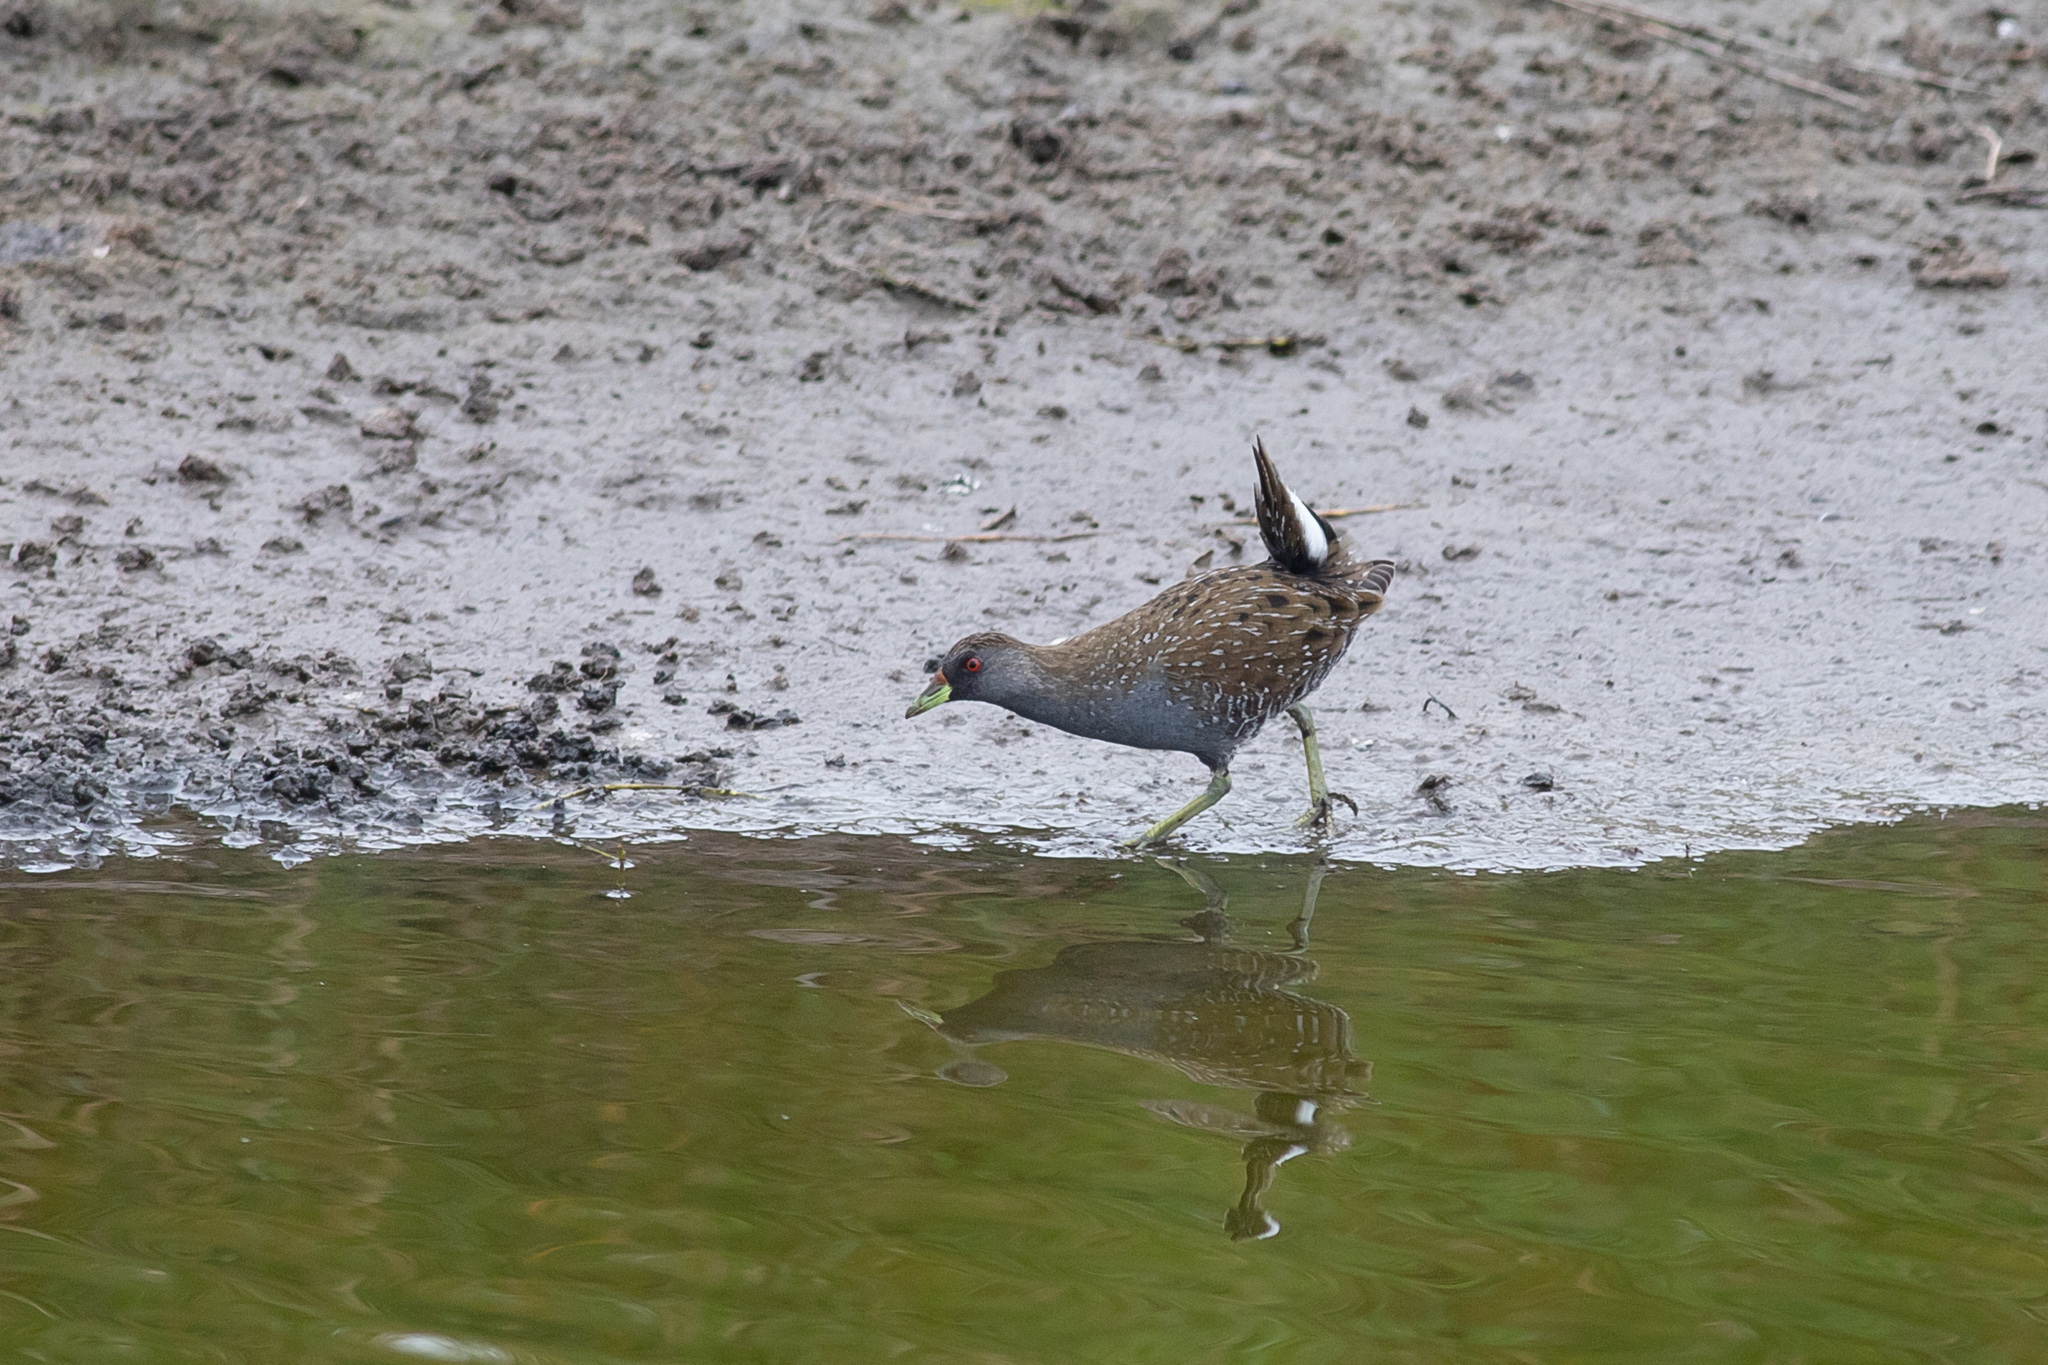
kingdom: Animalia
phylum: Chordata
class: Aves
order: Gruiformes
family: Rallidae
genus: Porzana
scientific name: Porzana fluminea
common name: Australian crake
